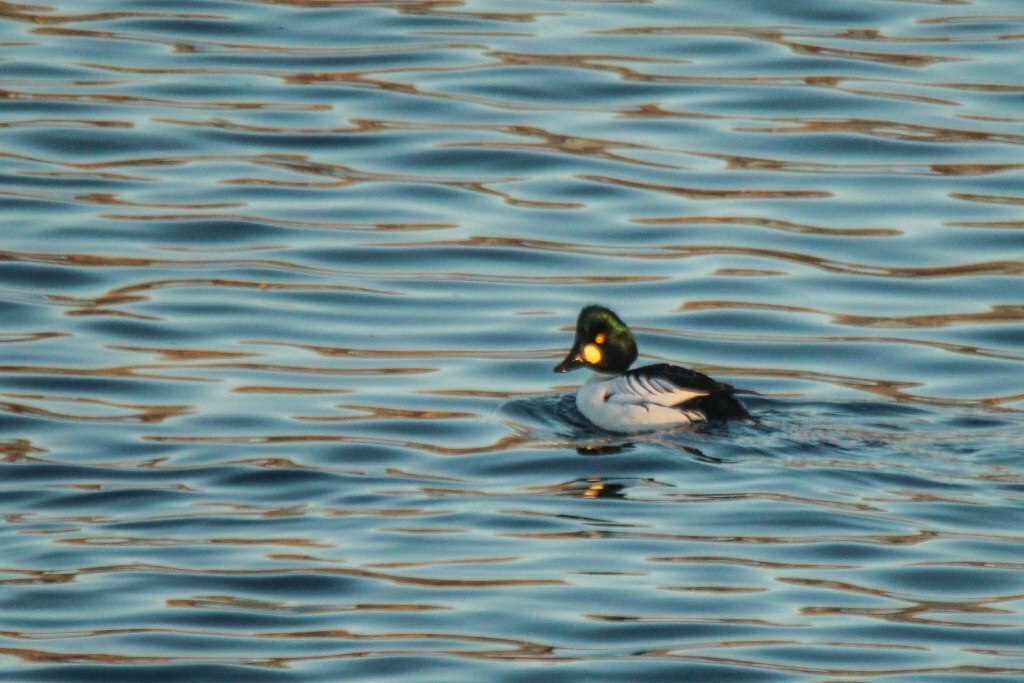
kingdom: Animalia
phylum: Chordata
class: Aves
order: Anseriformes
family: Anatidae
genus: Bucephala
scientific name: Bucephala clangula
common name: Common goldeneye
